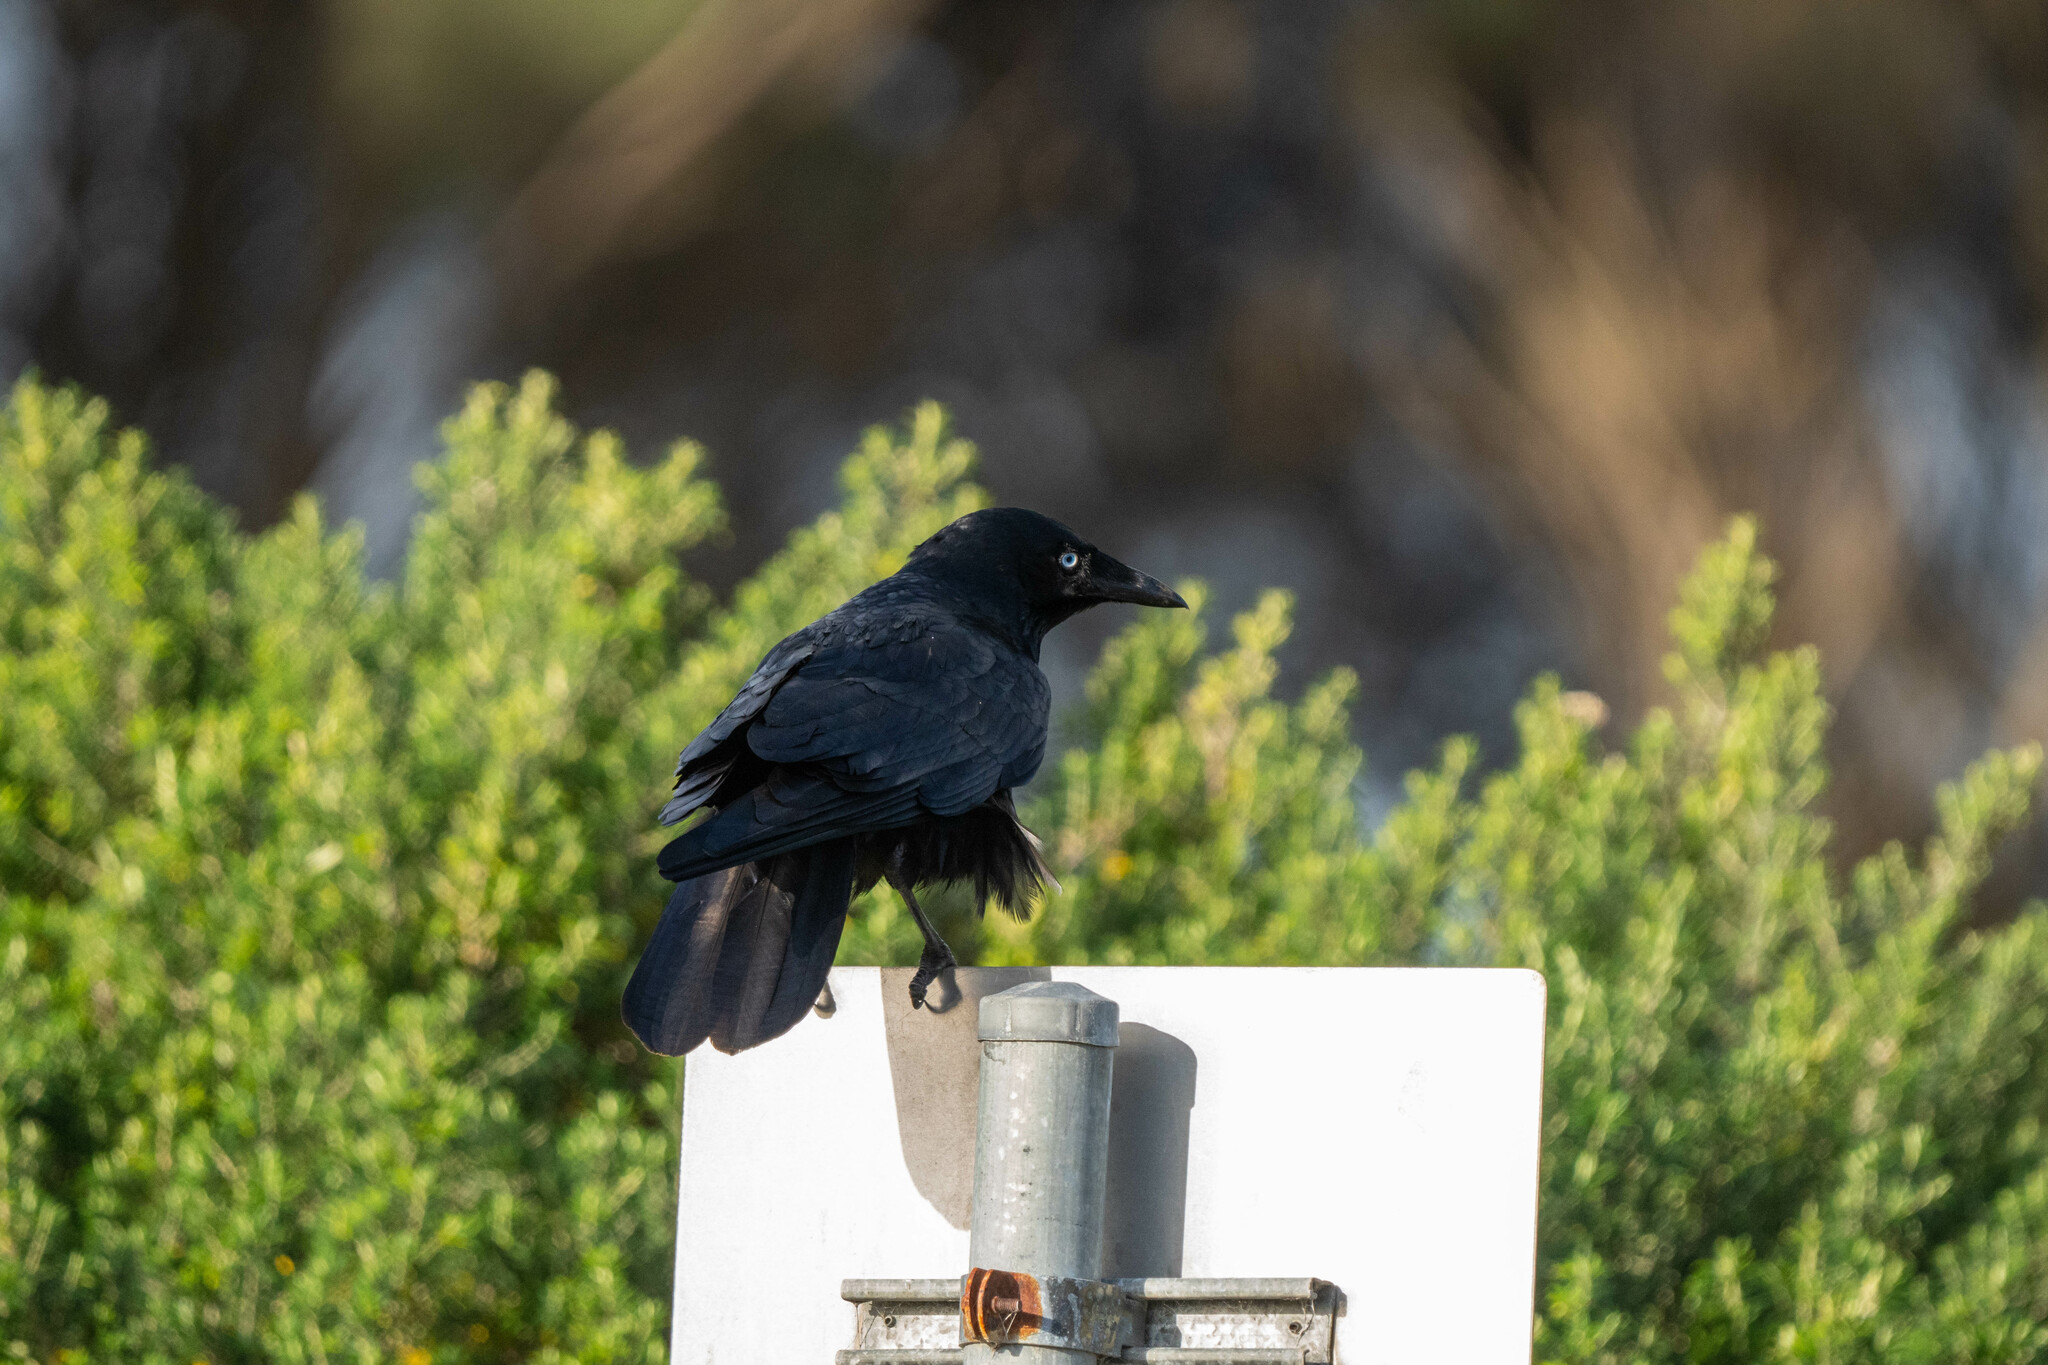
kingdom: Animalia
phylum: Chordata
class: Aves
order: Passeriformes
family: Corvidae
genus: Corvus
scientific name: Corvus mellori
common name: Little raven
